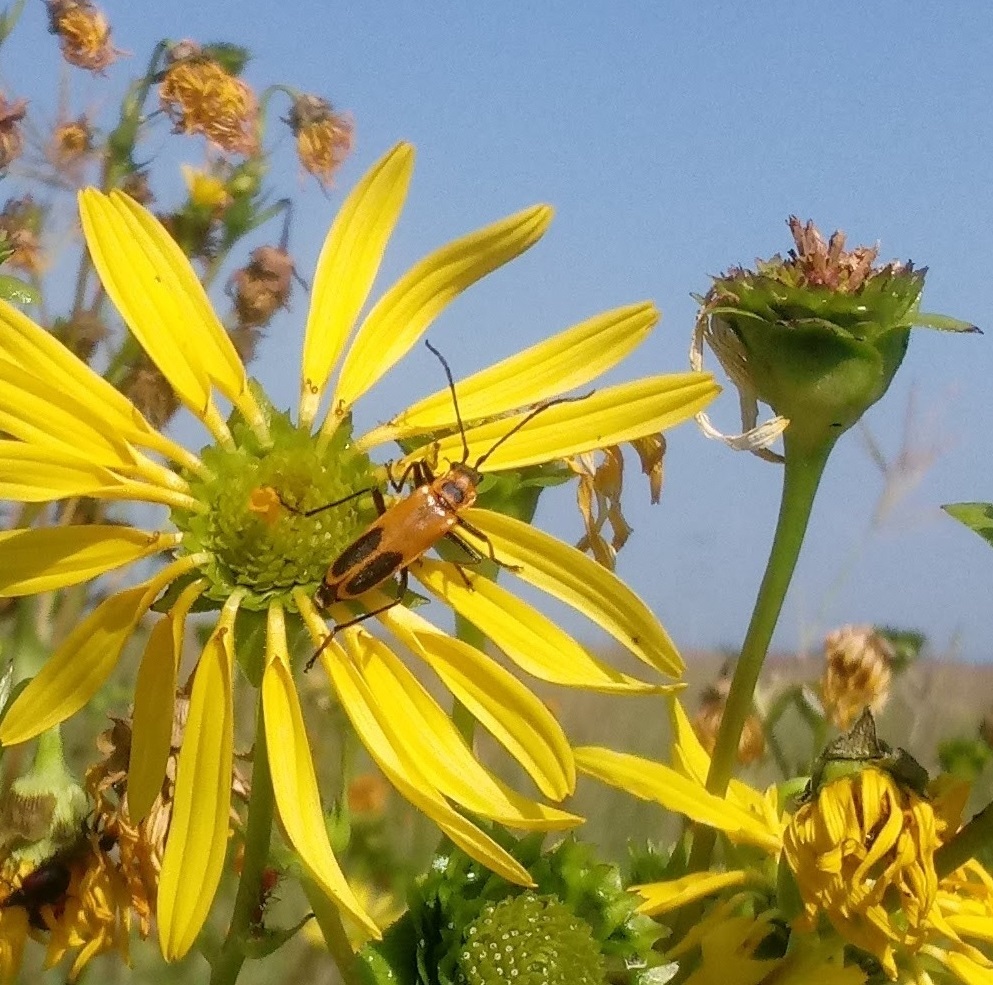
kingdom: Animalia
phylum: Arthropoda
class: Insecta
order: Coleoptera
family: Cantharidae
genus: Chauliognathus
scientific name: Chauliognathus pensylvanicus
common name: Goldenrod soldier beetle
